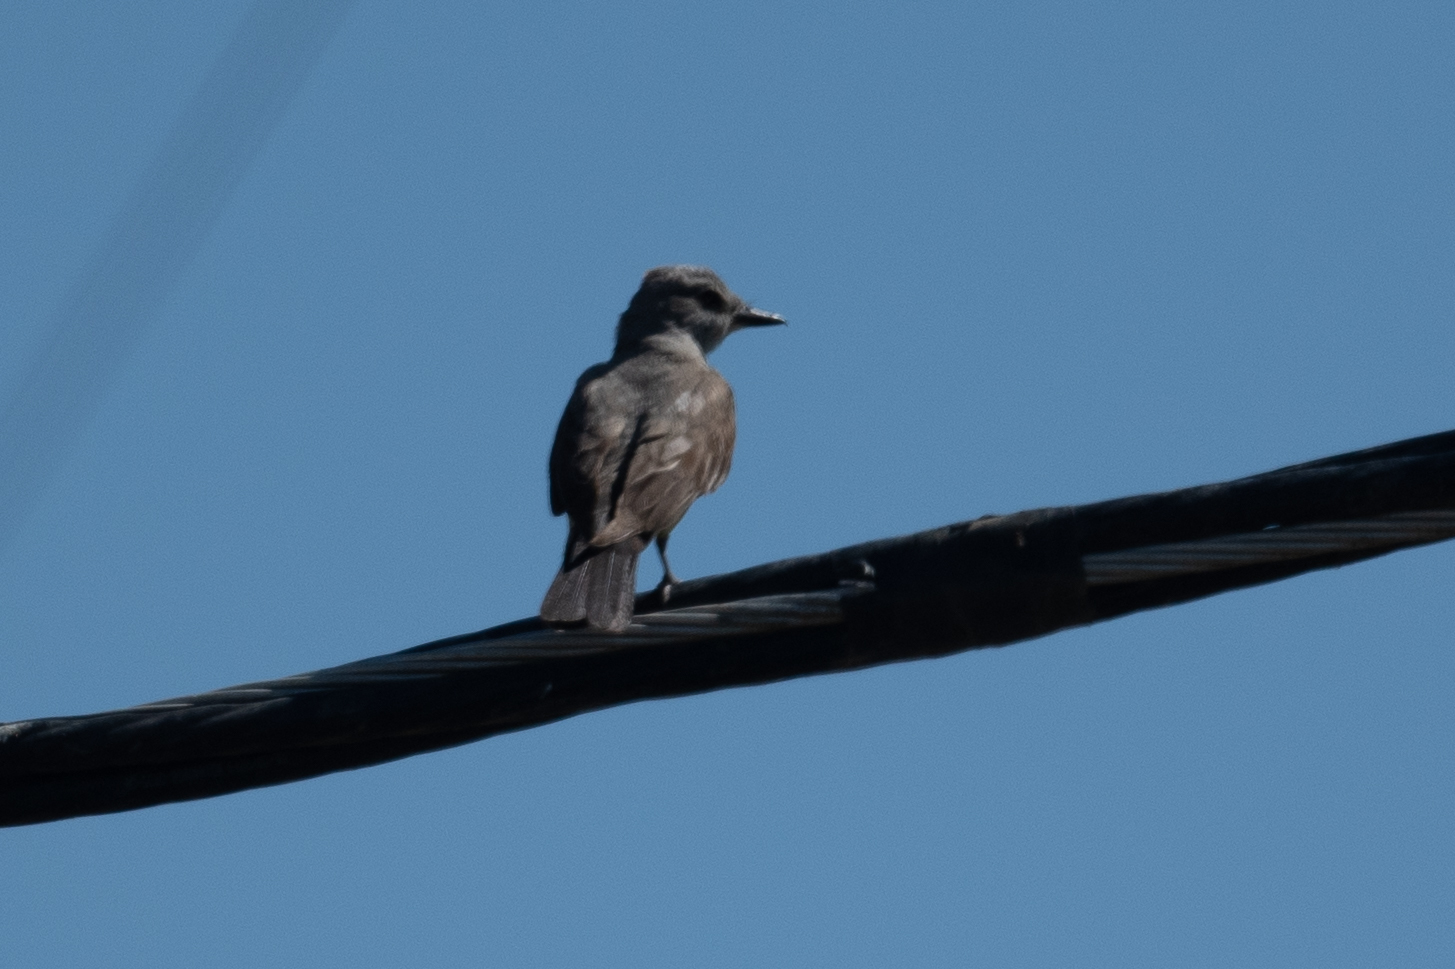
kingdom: Animalia
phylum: Chordata
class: Aves
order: Passeriformes
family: Tyrannidae
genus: Tyrannus
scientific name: Tyrannus verticalis
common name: Western kingbird
